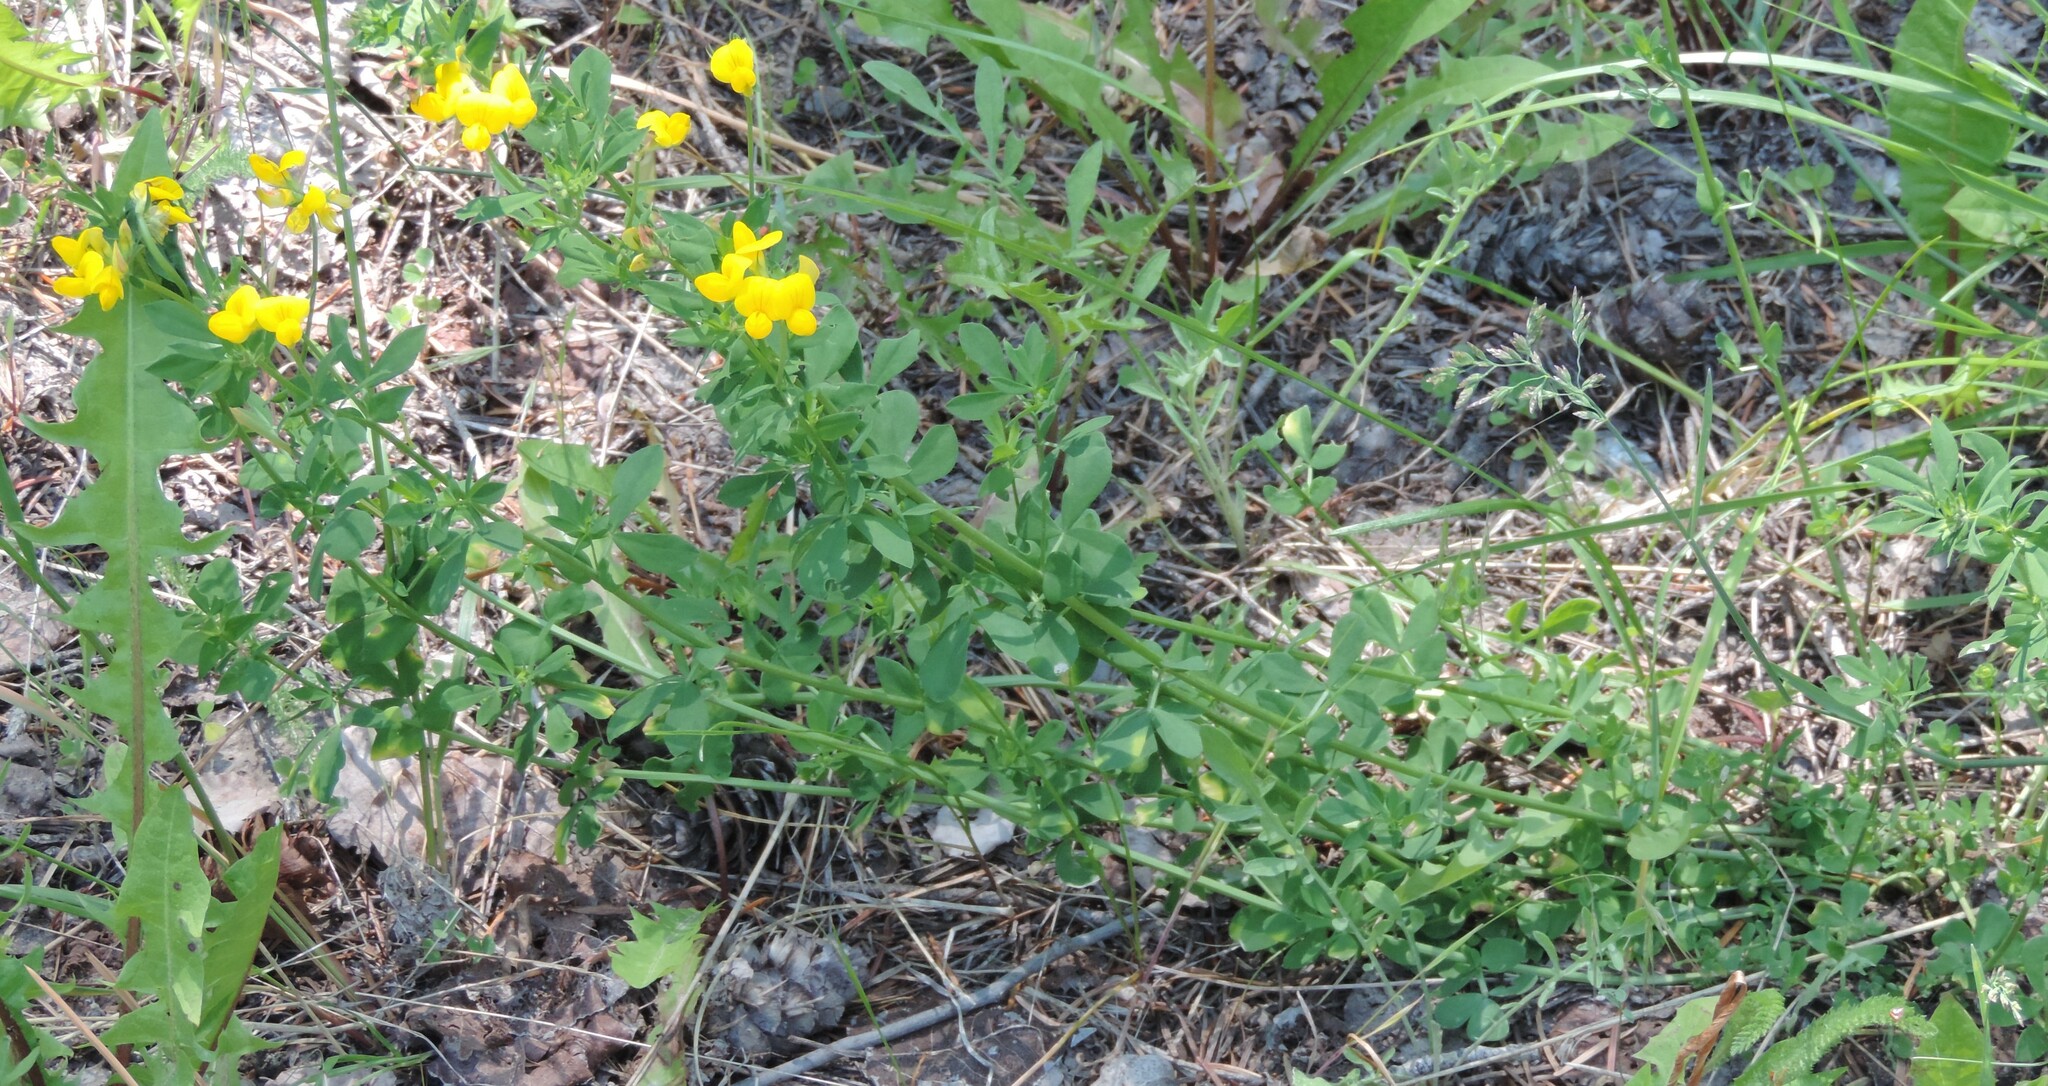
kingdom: Plantae
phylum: Tracheophyta
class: Magnoliopsida
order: Fabales
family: Fabaceae
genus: Lotus
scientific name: Lotus corniculatus
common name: Common bird's-foot-trefoil
